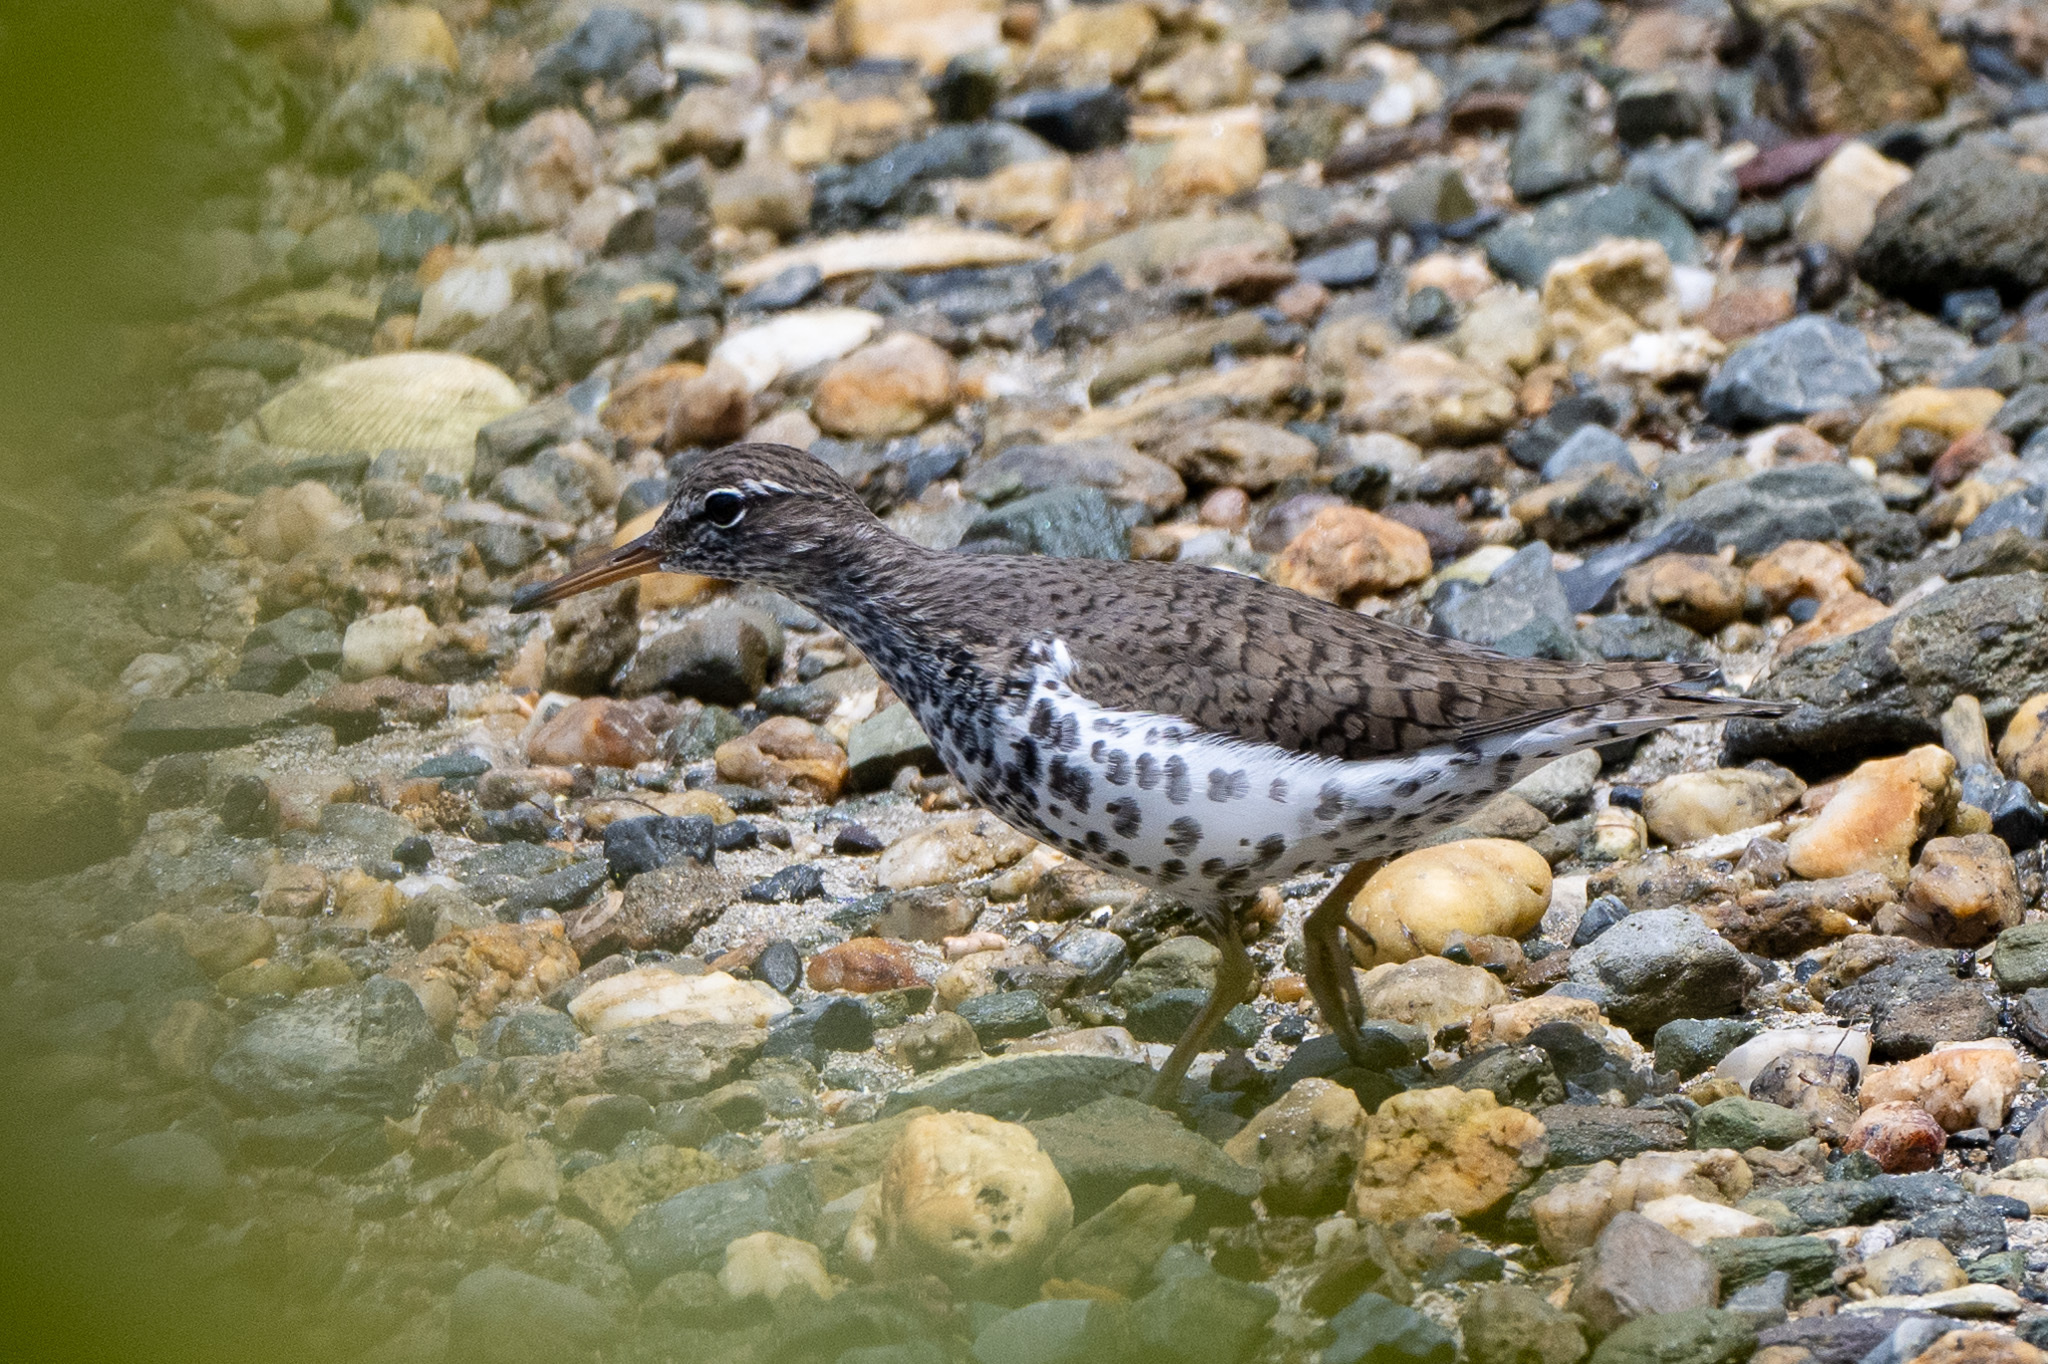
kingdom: Animalia
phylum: Chordata
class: Aves
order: Charadriiformes
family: Scolopacidae
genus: Actitis
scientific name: Actitis macularius
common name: Spotted sandpiper
